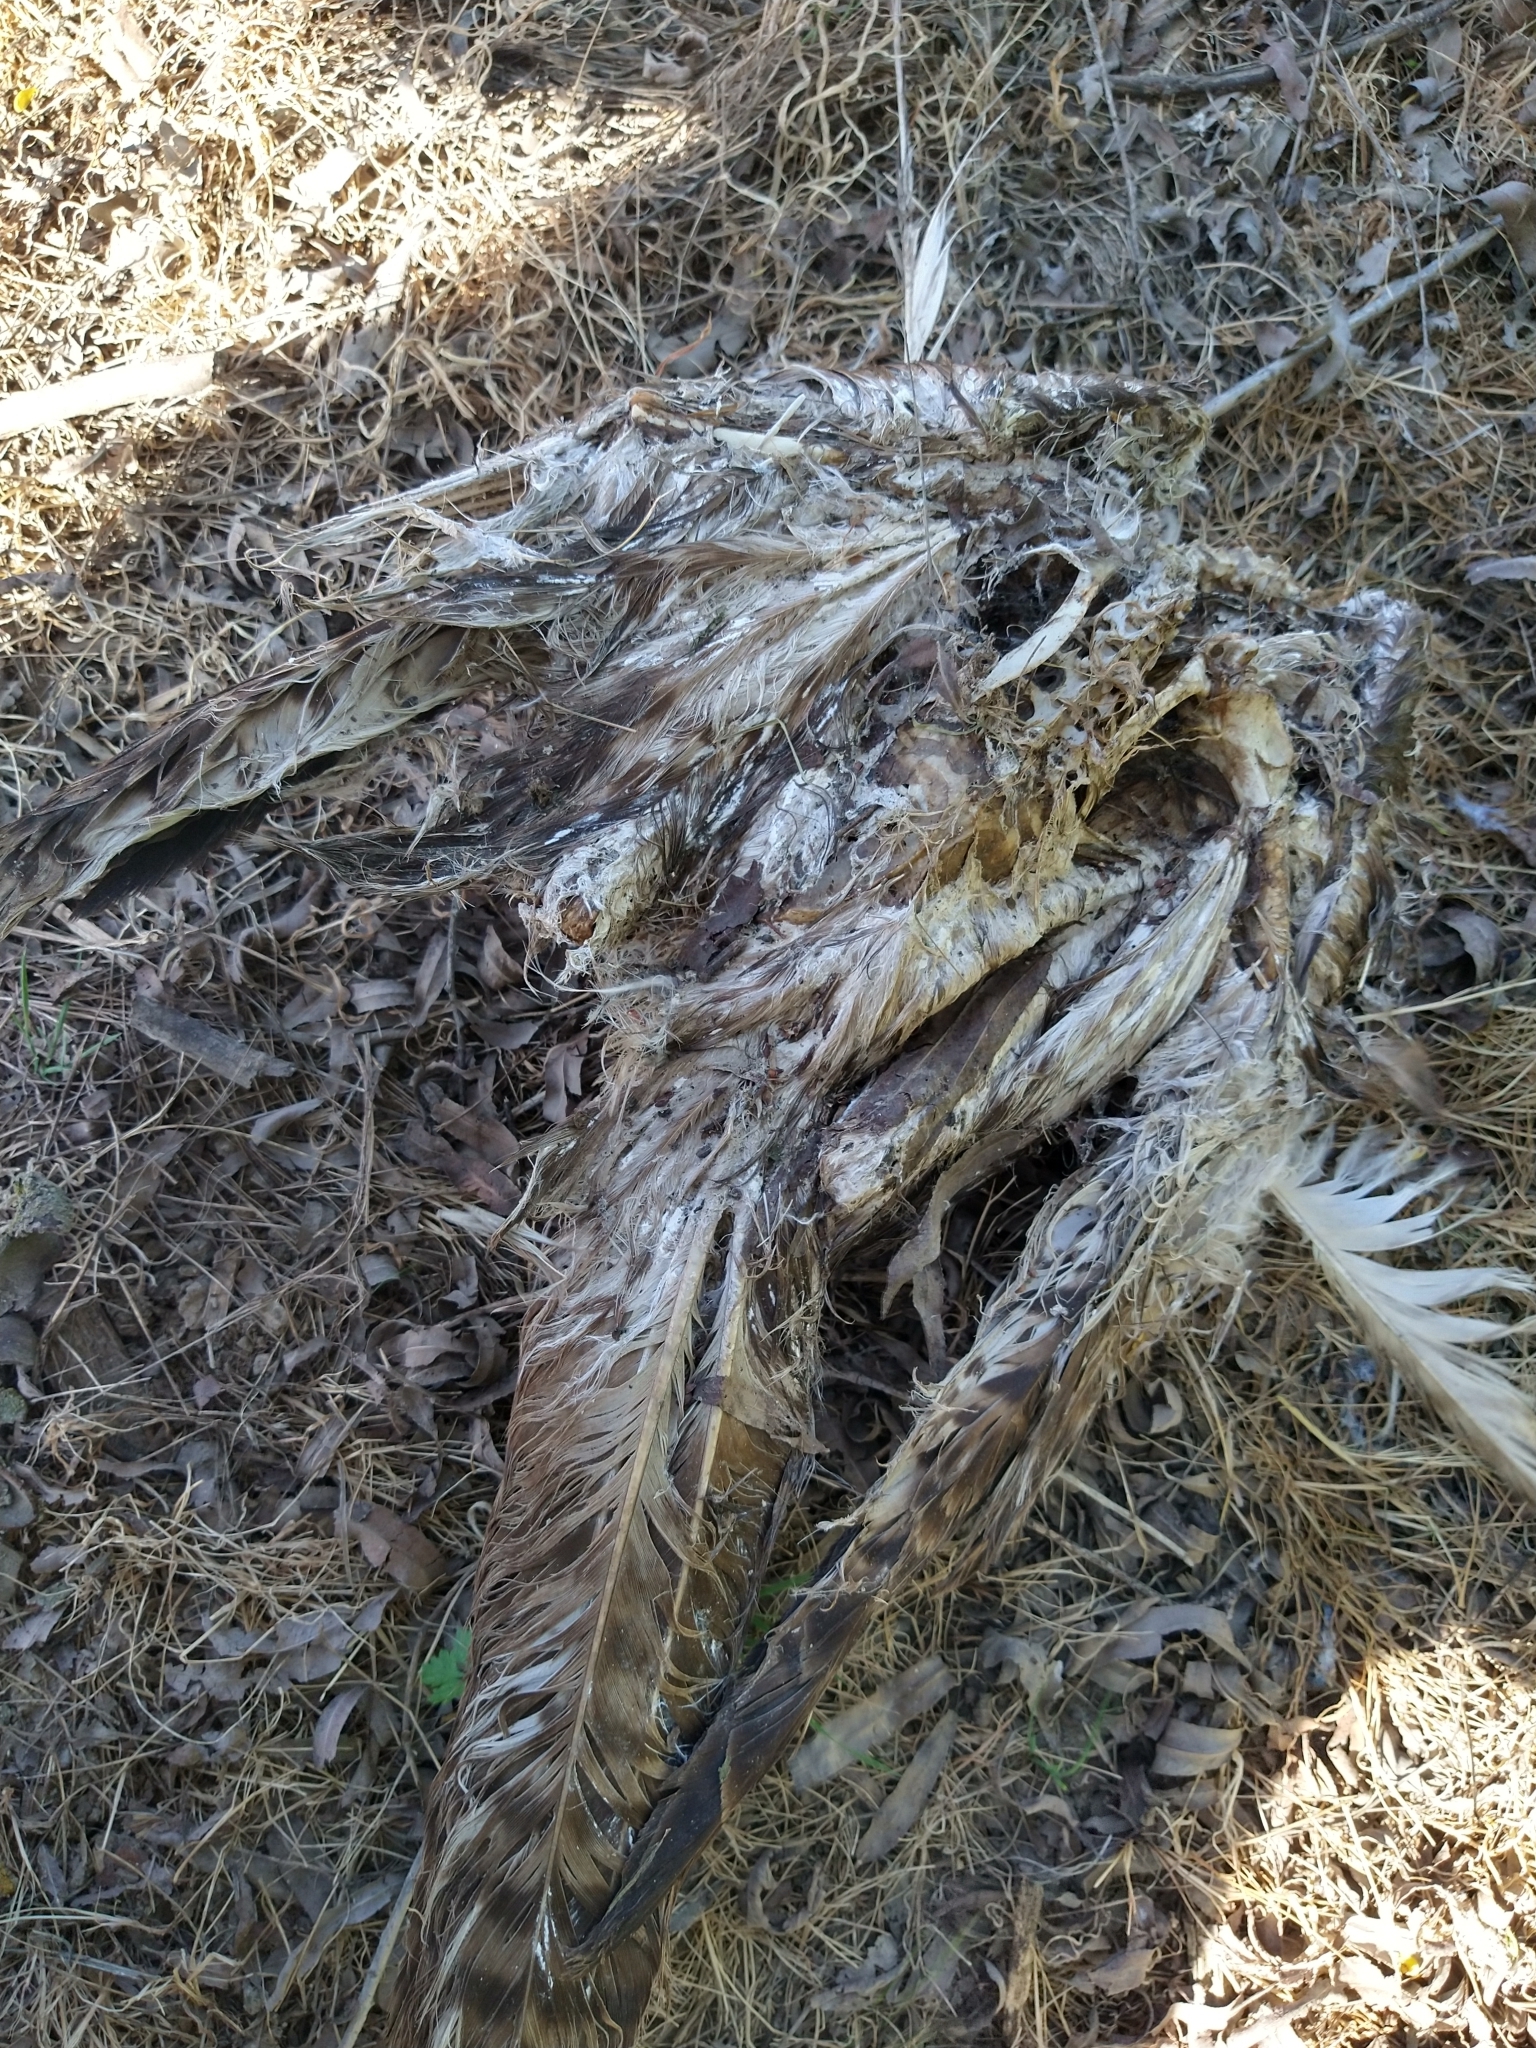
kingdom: Animalia
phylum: Chordata
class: Aves
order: Accipitriformes
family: Accipitridae
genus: Buteo
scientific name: Buteo
